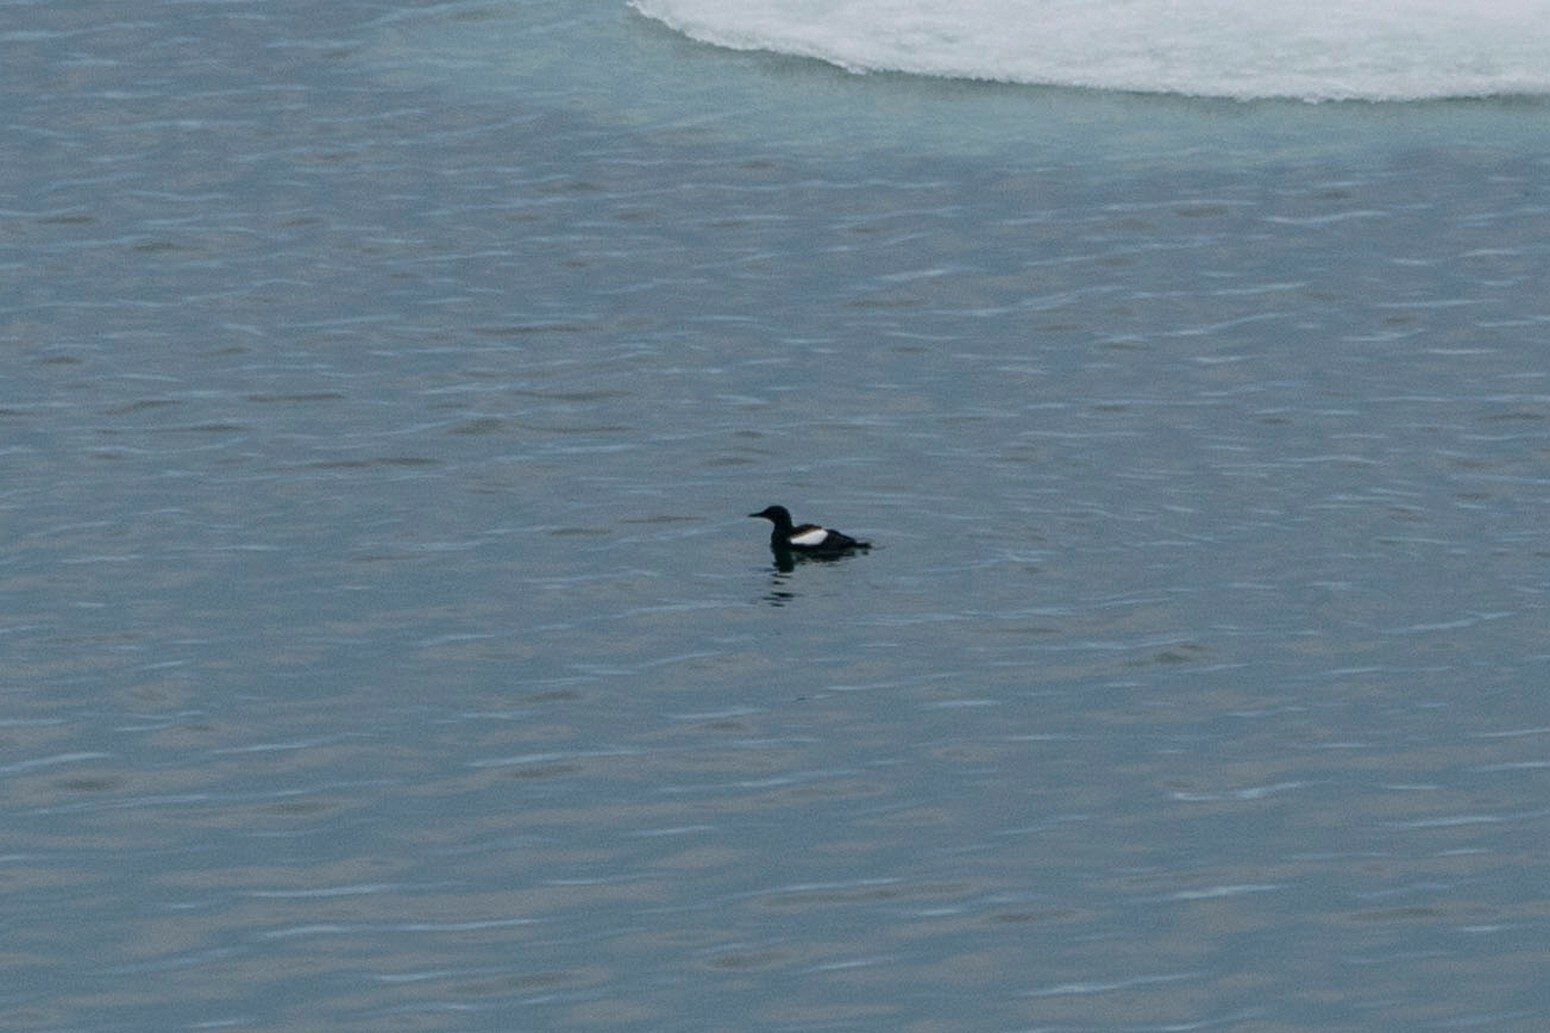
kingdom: Animalia
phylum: Chordata
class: Aves
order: Charadriiformes
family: Alcidae
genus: Cepphus
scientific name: Cepphus grylle
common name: Black guillemot
